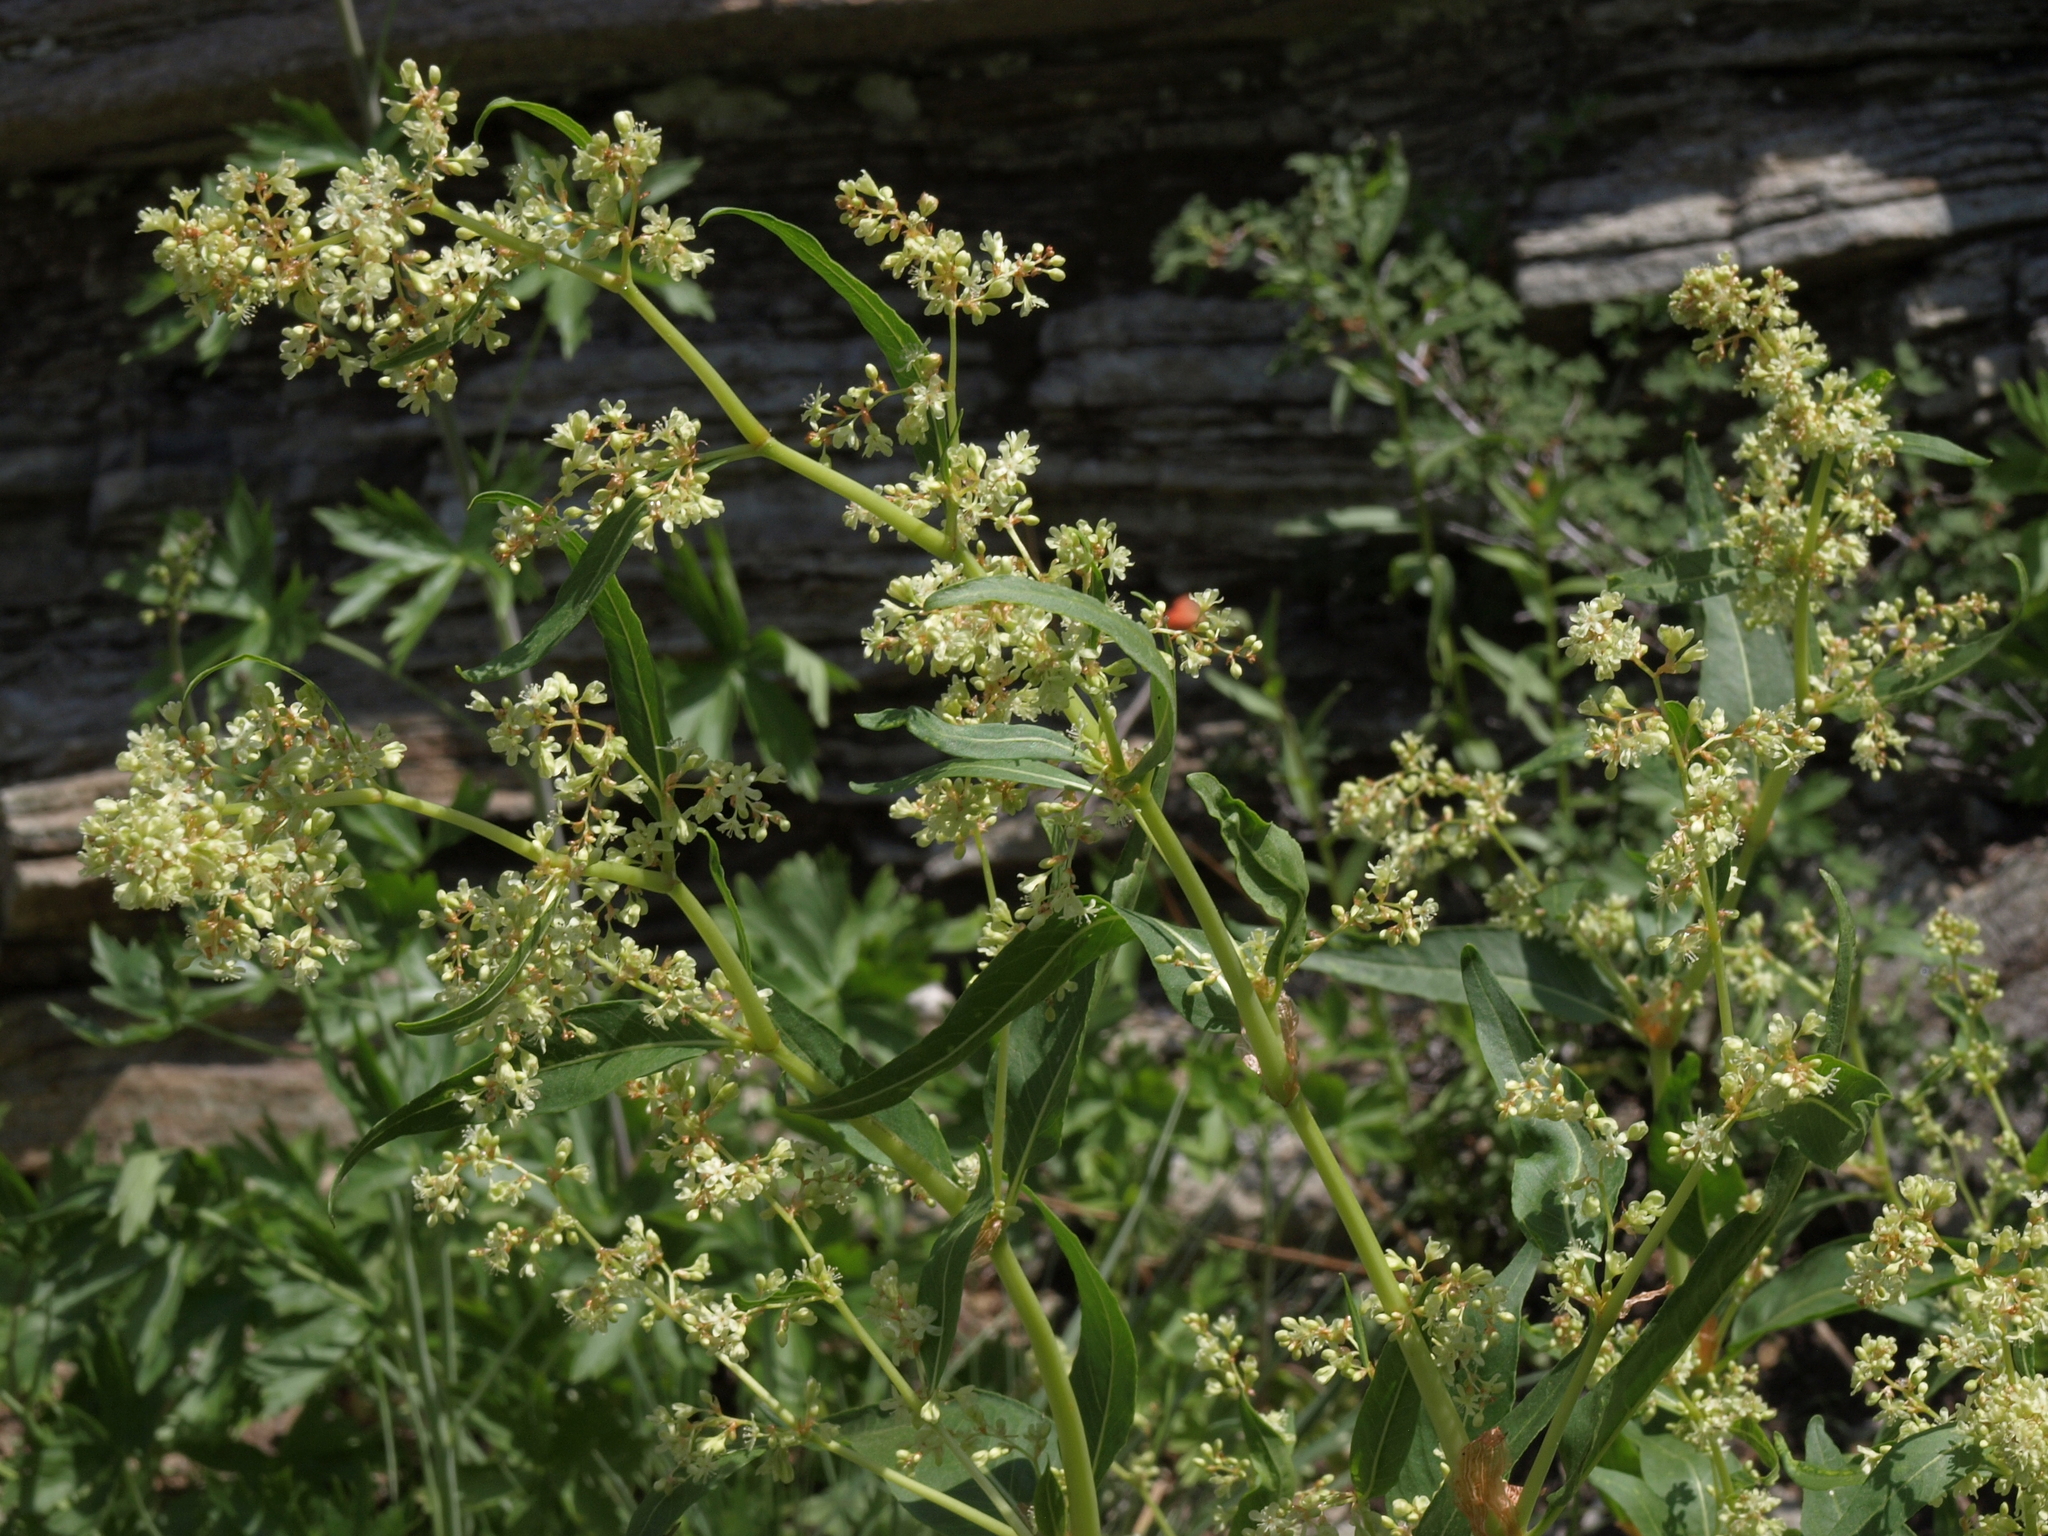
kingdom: Plantae
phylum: Tracheophyta
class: Magnoliopsida
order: Caryophyllales
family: Polygonaceae
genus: Koenigia
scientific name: Koenigia phytolaccifolia
